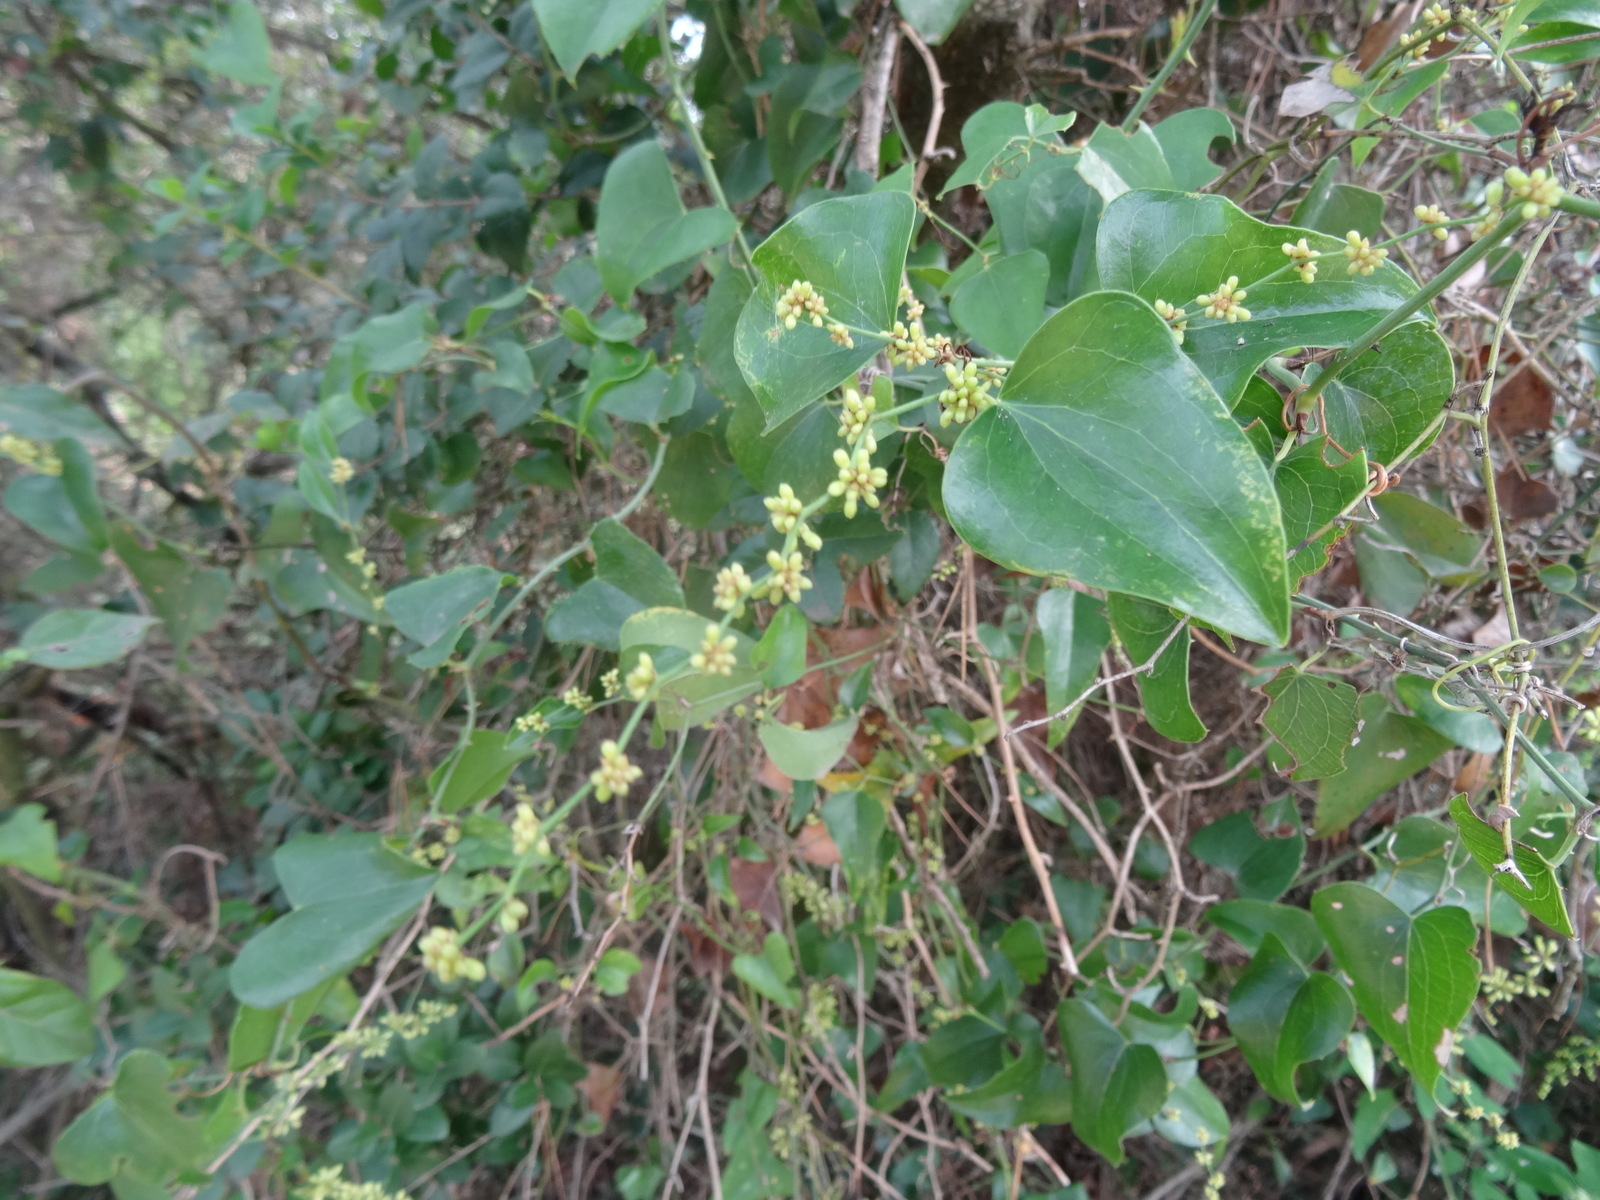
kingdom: Plantae
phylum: Tracheophyta
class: Liliopsida
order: Liliales
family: Smilacaceae
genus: Smilax
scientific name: Smilax aspera
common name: Common smilax
